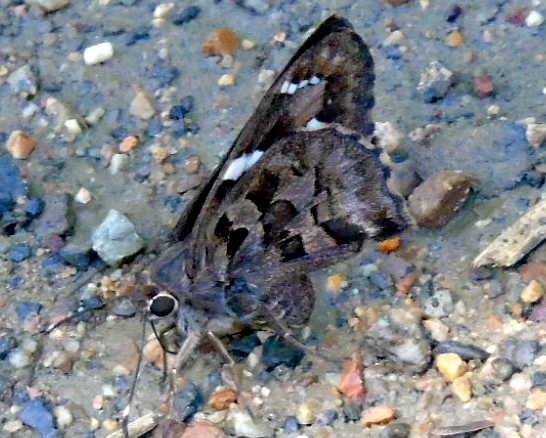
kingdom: Animalia
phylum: Arthropoda
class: Insecta
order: Lepidoptera
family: Hesperiidae
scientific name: Hesperiidae
